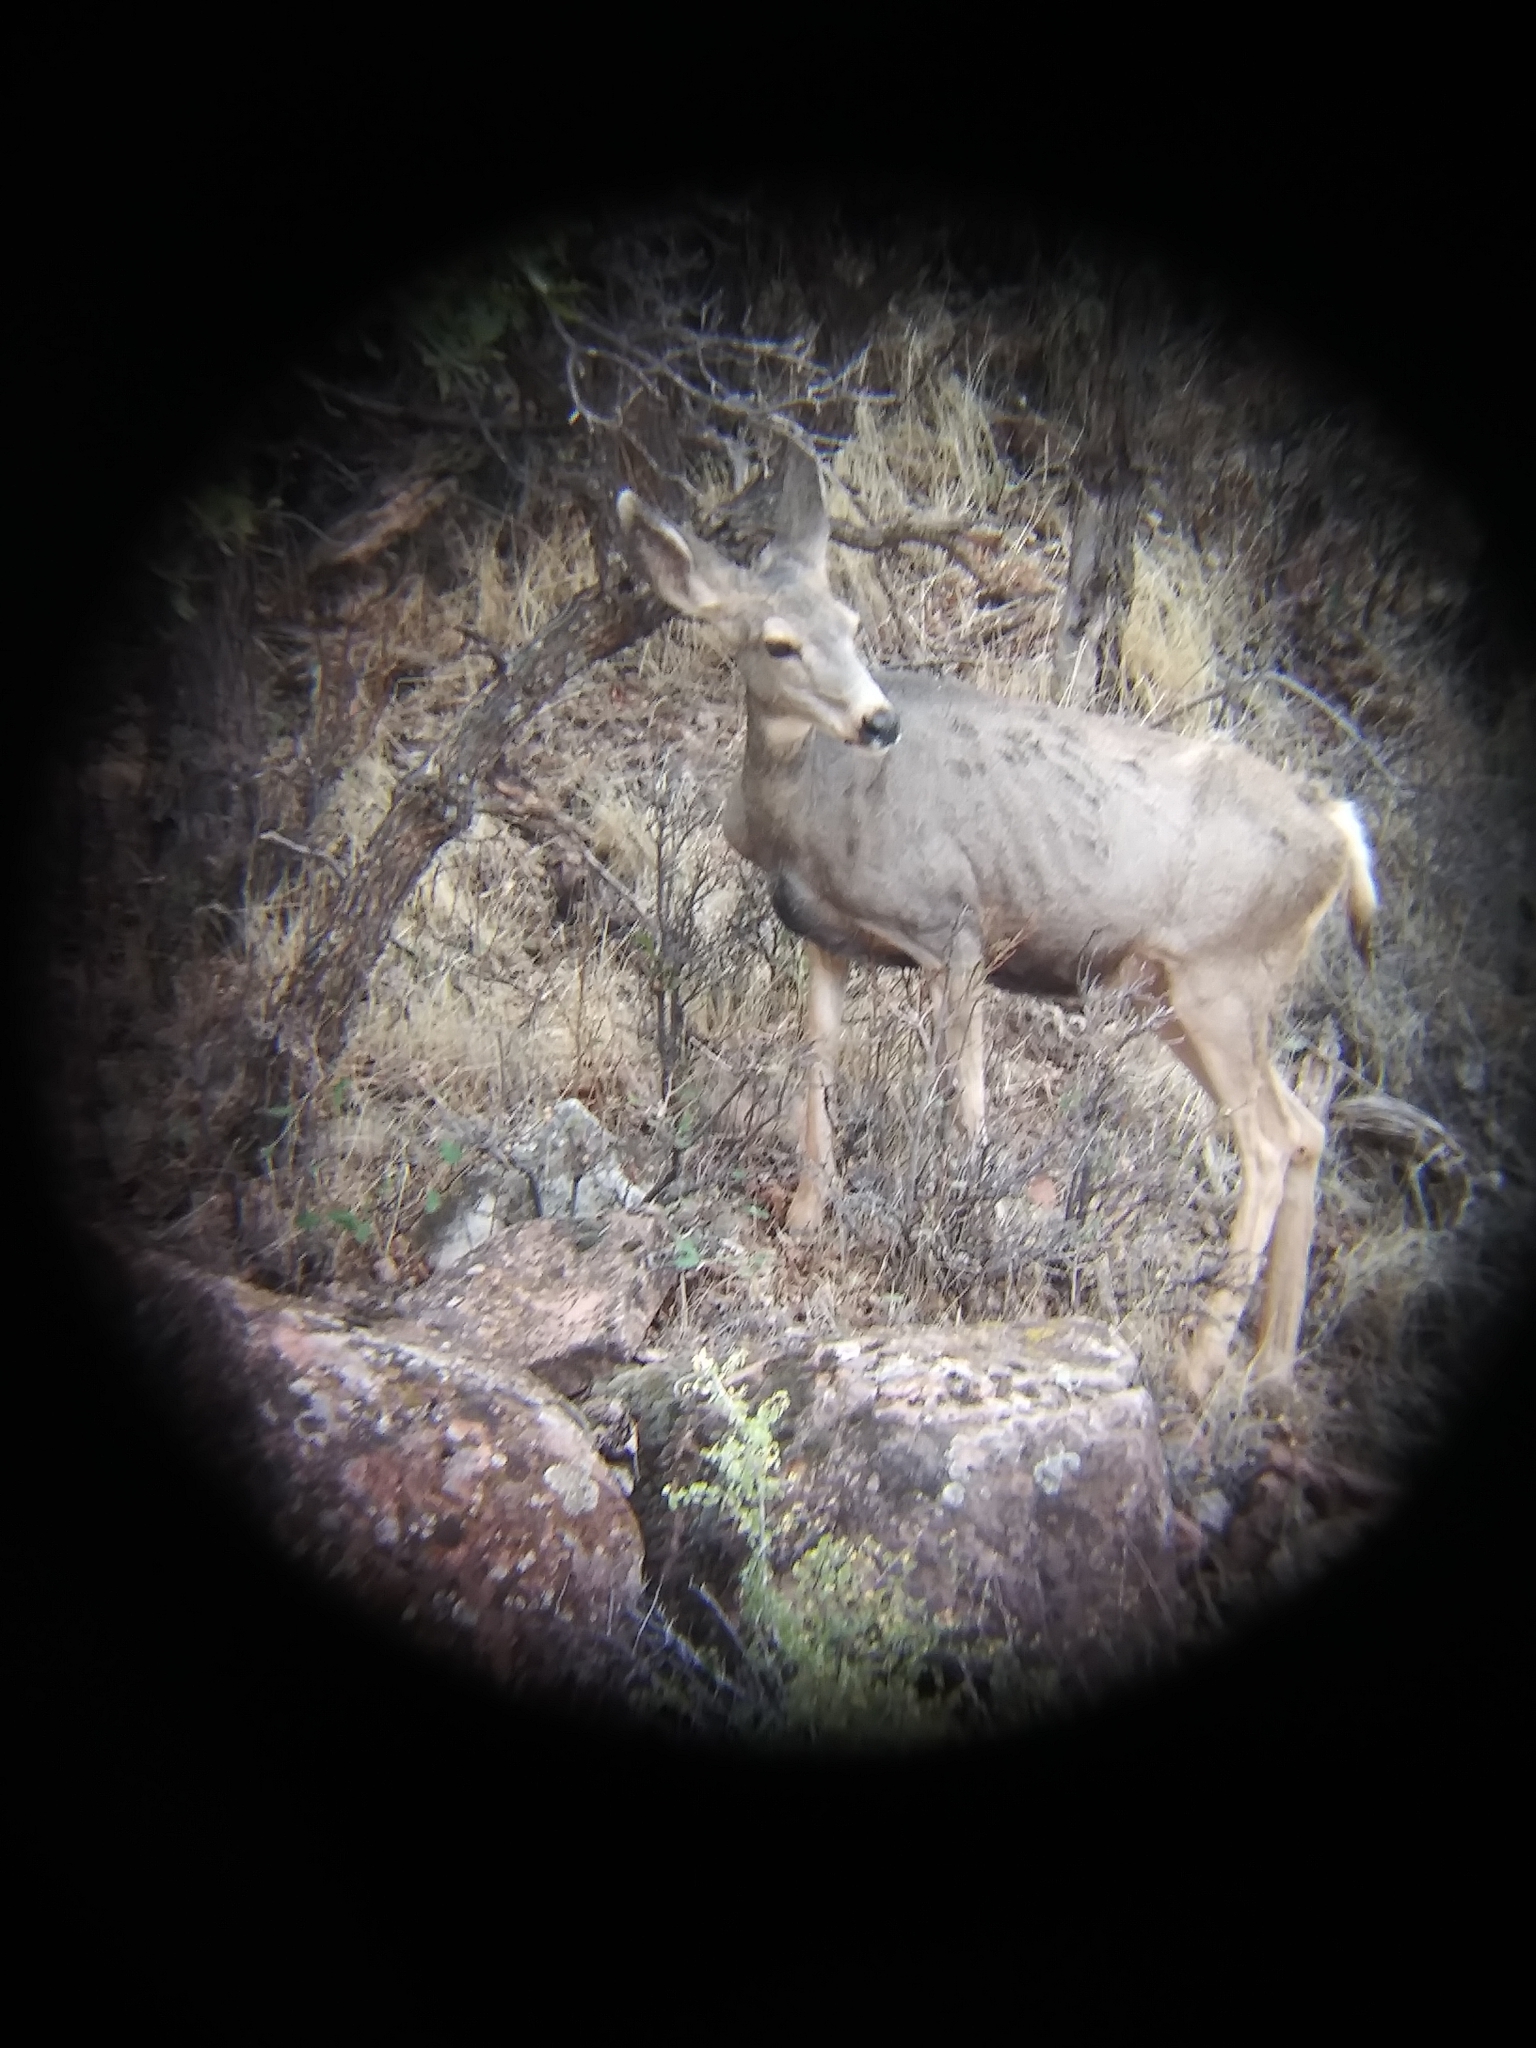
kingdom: Animalia
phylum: Chordata
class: Mammalia
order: Artiodactyla
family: Cervidae
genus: Odocoileus
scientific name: Odocoileus hemionus
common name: Mule deer
